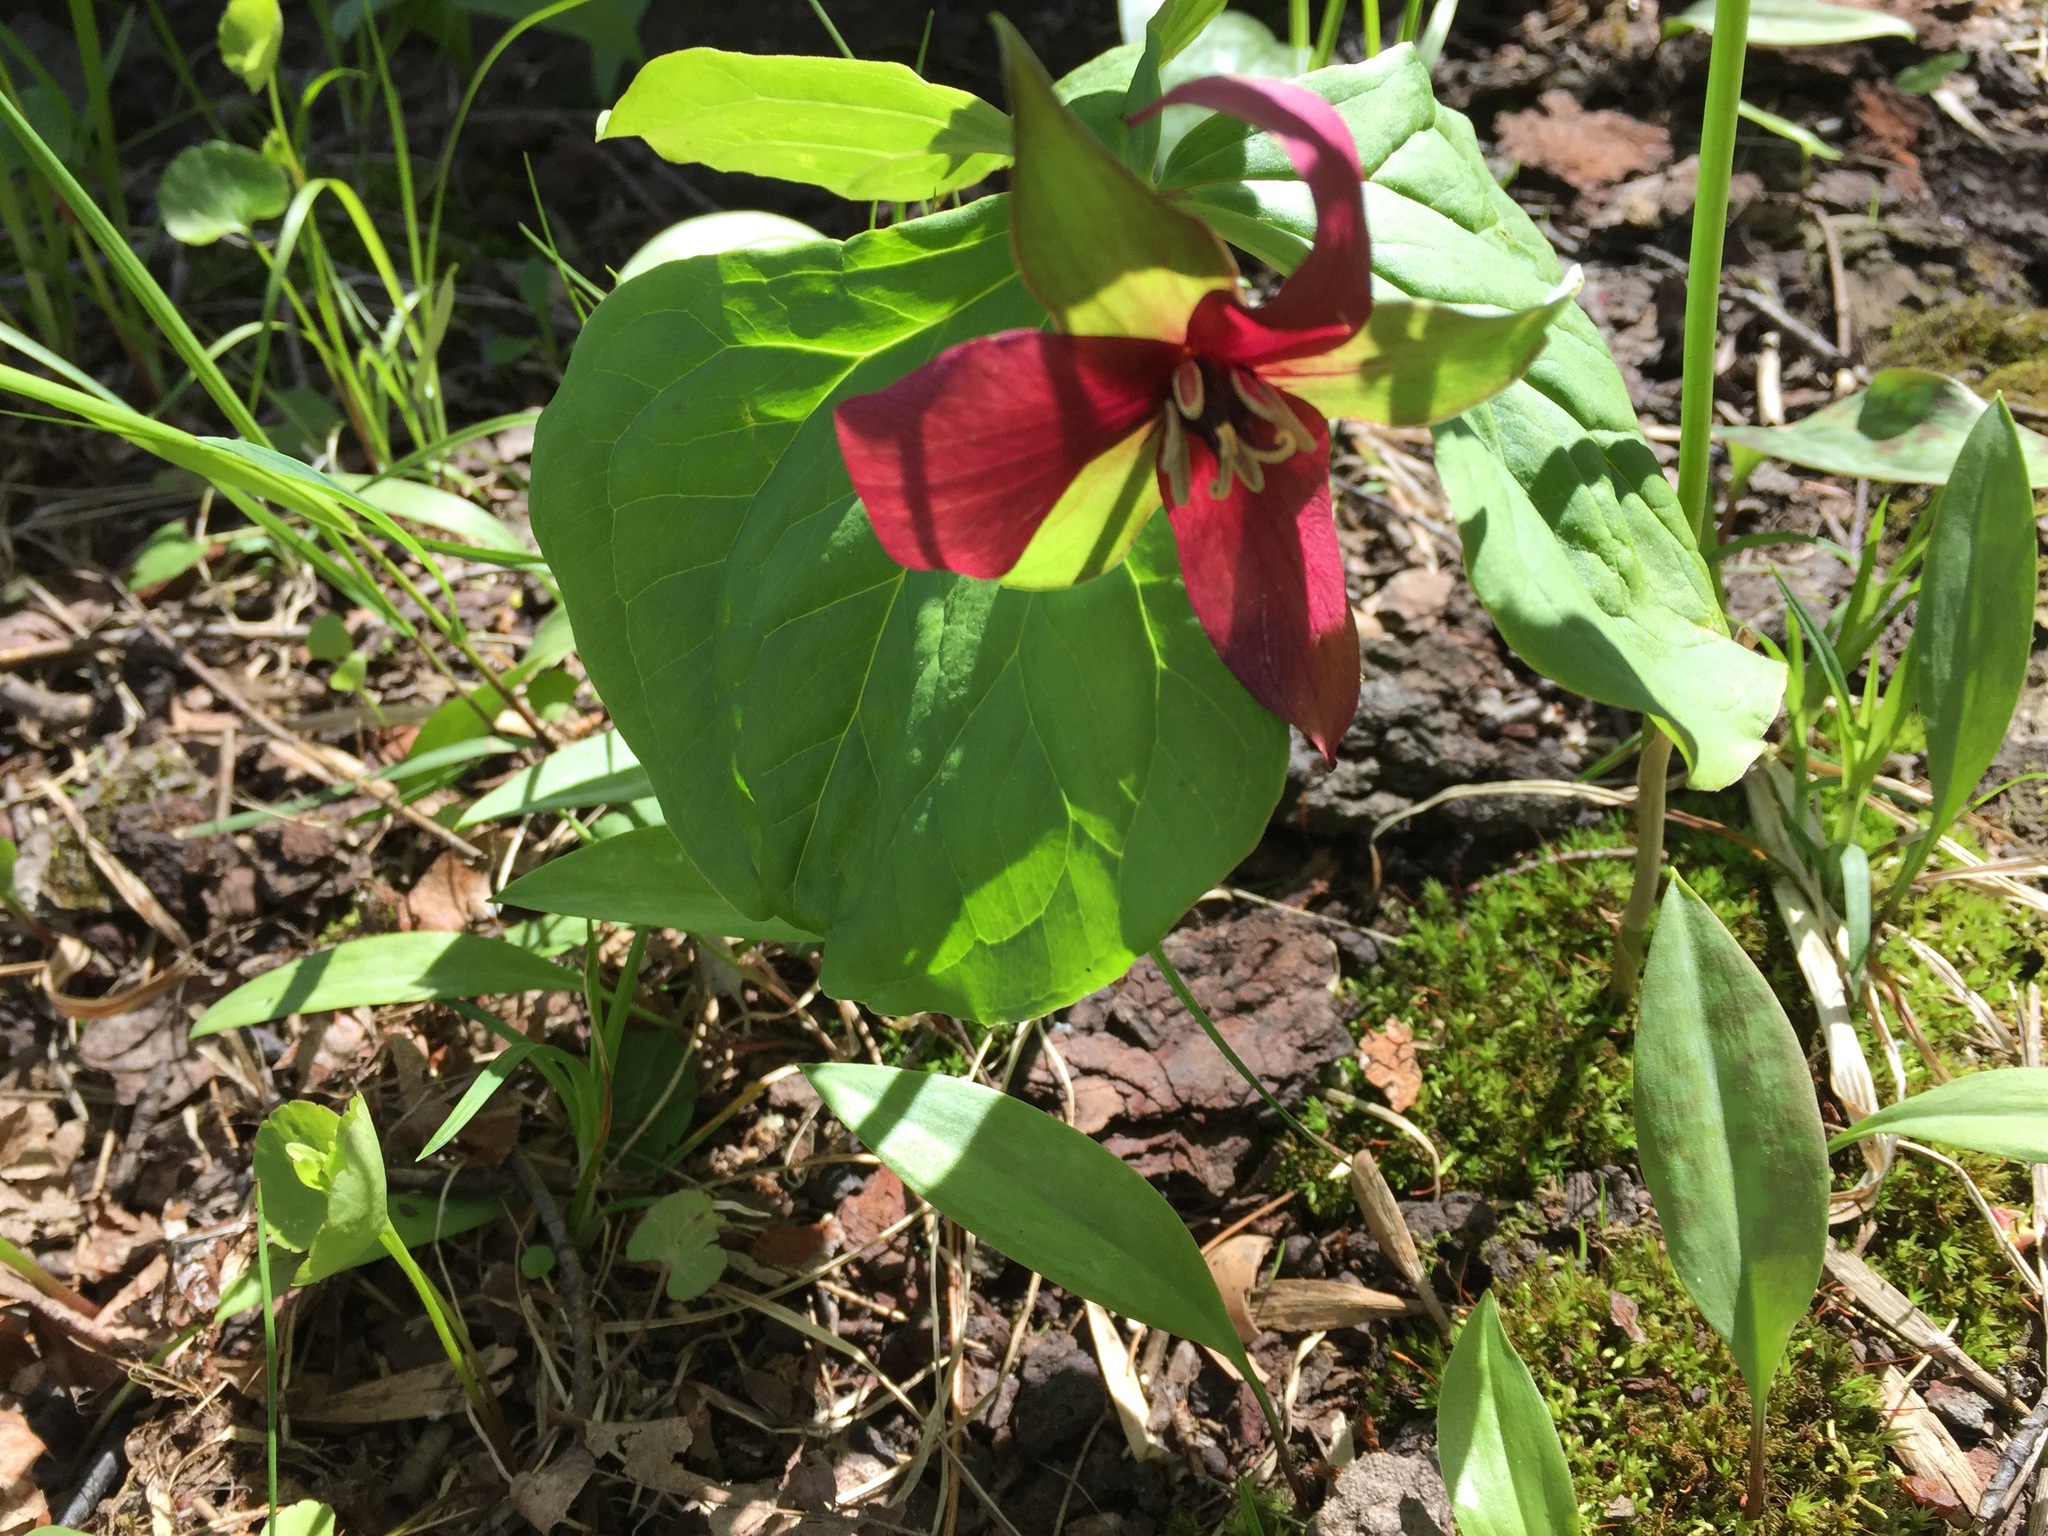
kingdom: Plantae
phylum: Tracheophyta
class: Liliopsida
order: Liliales
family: Melanthiaceae
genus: Trillium
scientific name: Trillium erectum
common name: Purple trillium
